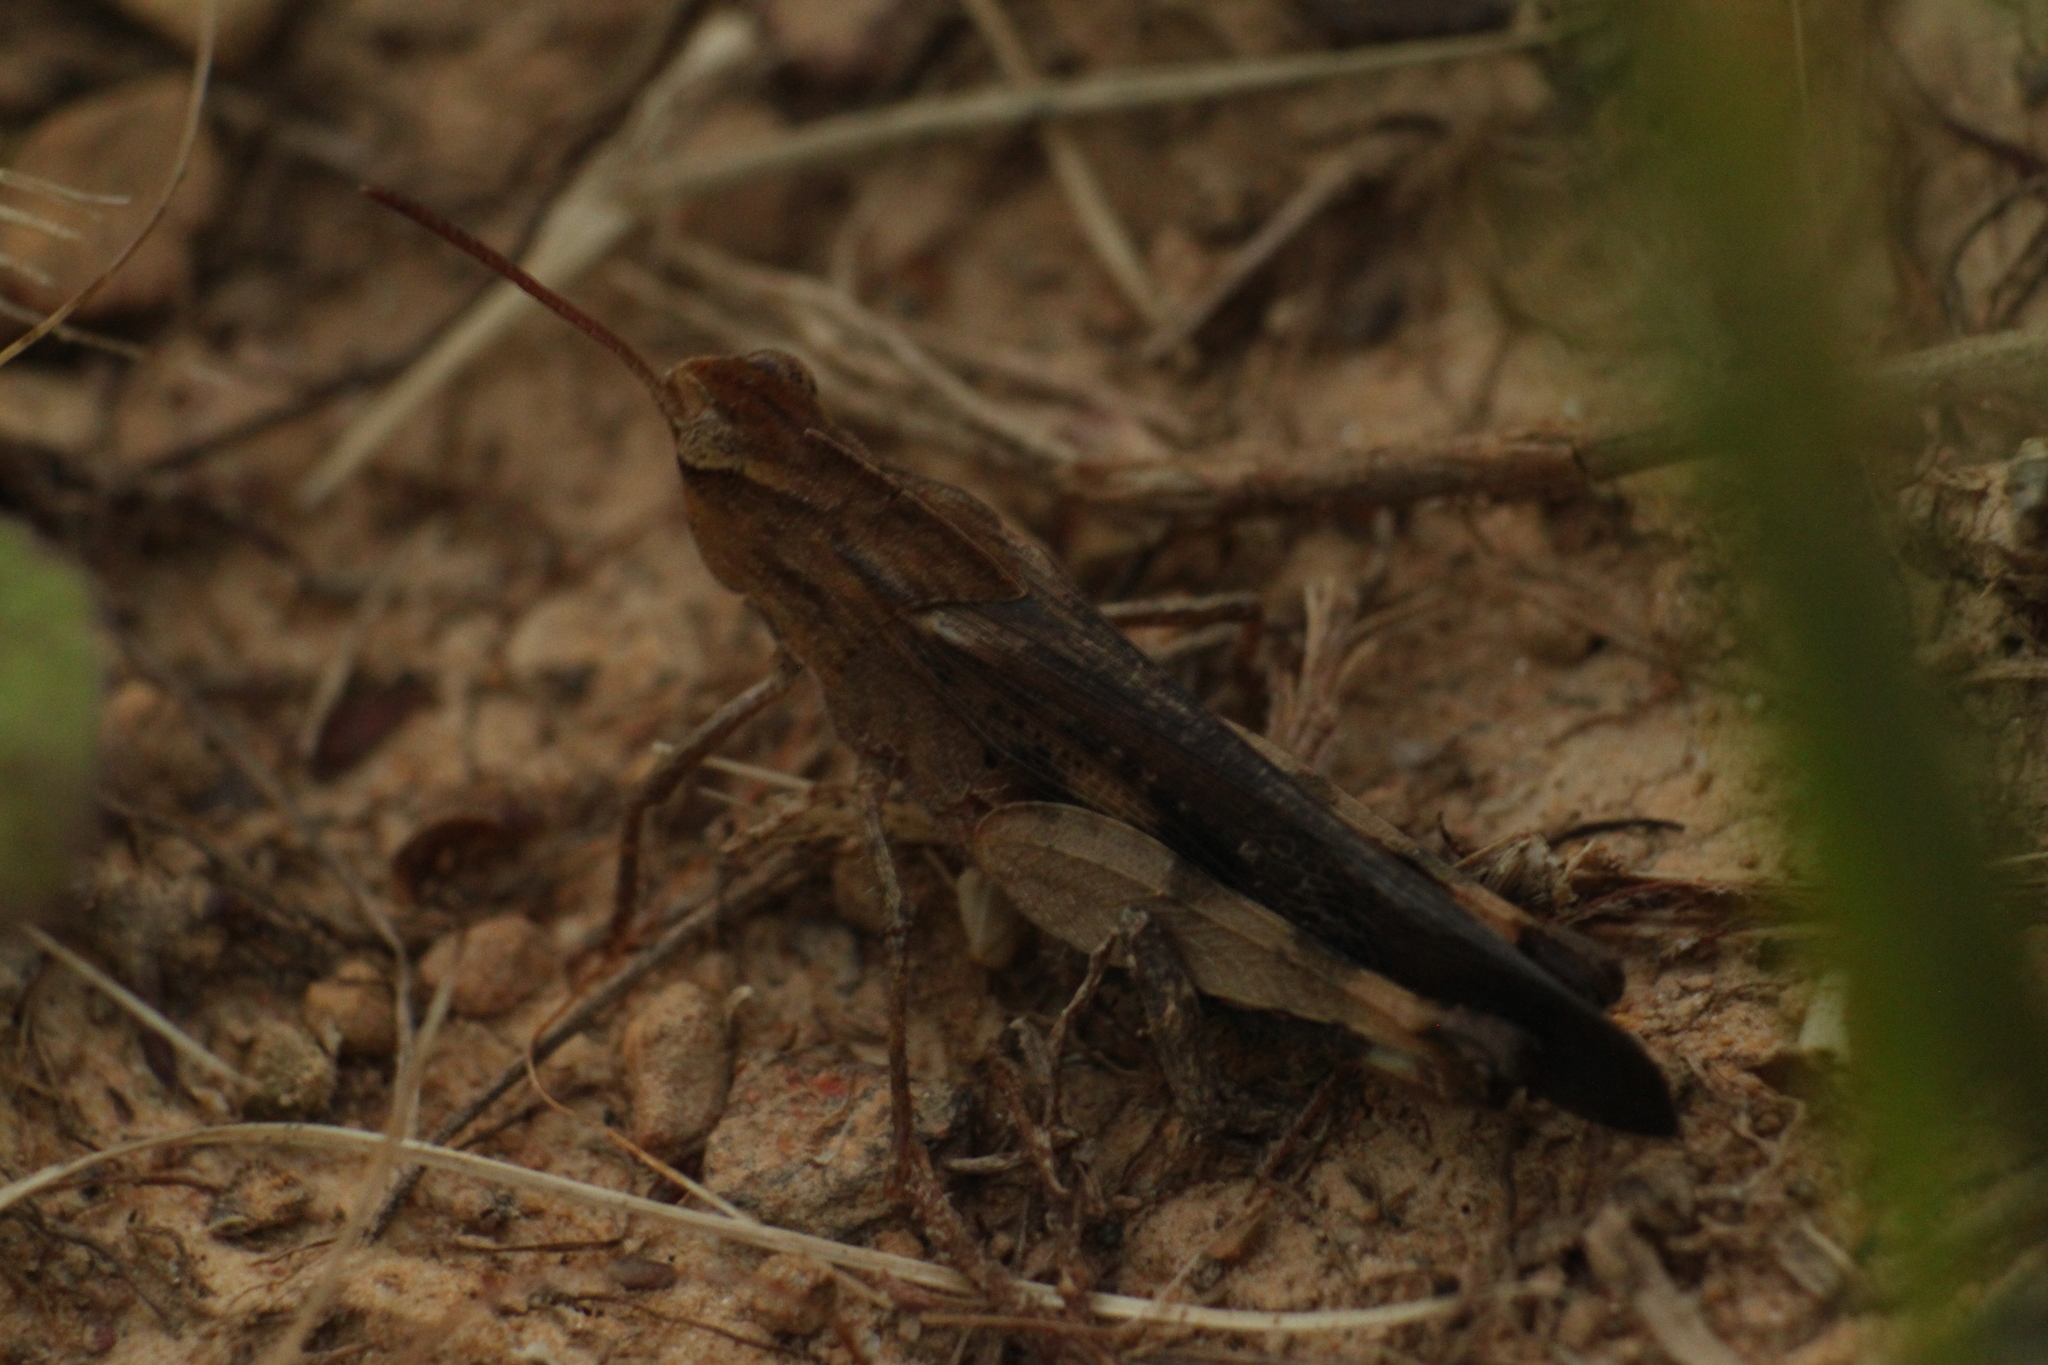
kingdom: Animalia
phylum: Arthropoda
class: Insecta
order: Orthoptera
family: Acrididae
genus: Chortophaga
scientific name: Chortophaga viridifasciata
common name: Green-striped grasshopper
